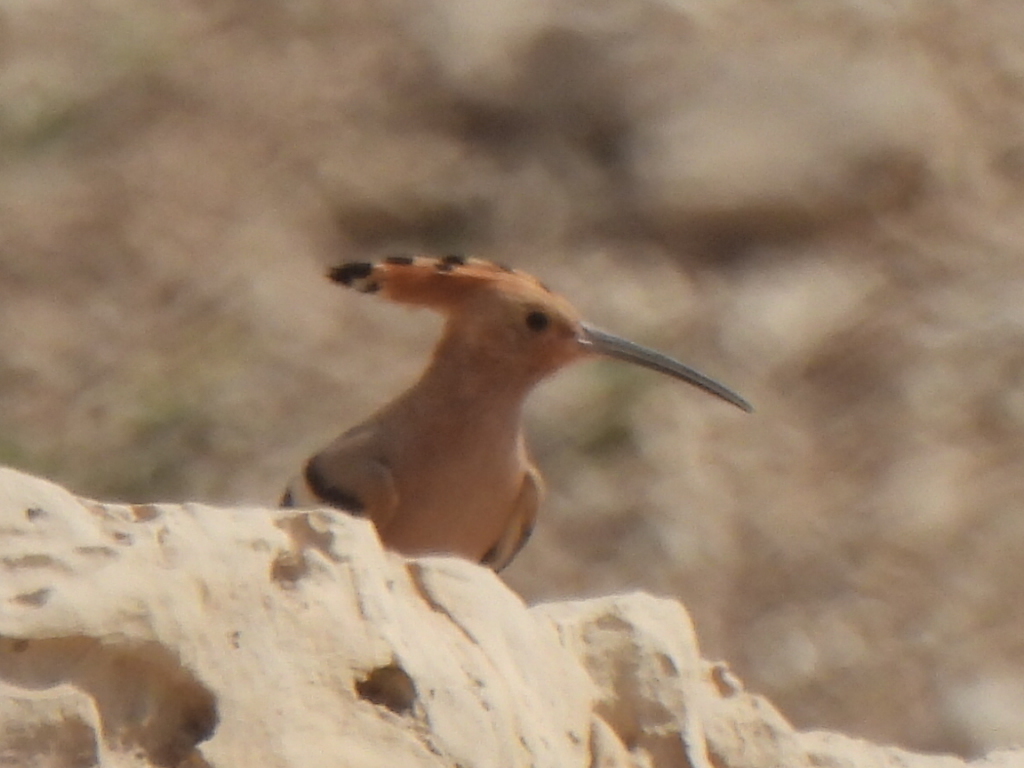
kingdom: Animalia
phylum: Chordata
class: Aves
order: Bucerotiformes
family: Upupidae
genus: Upupa
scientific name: Upupa epops
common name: Eurasian hoopoe
